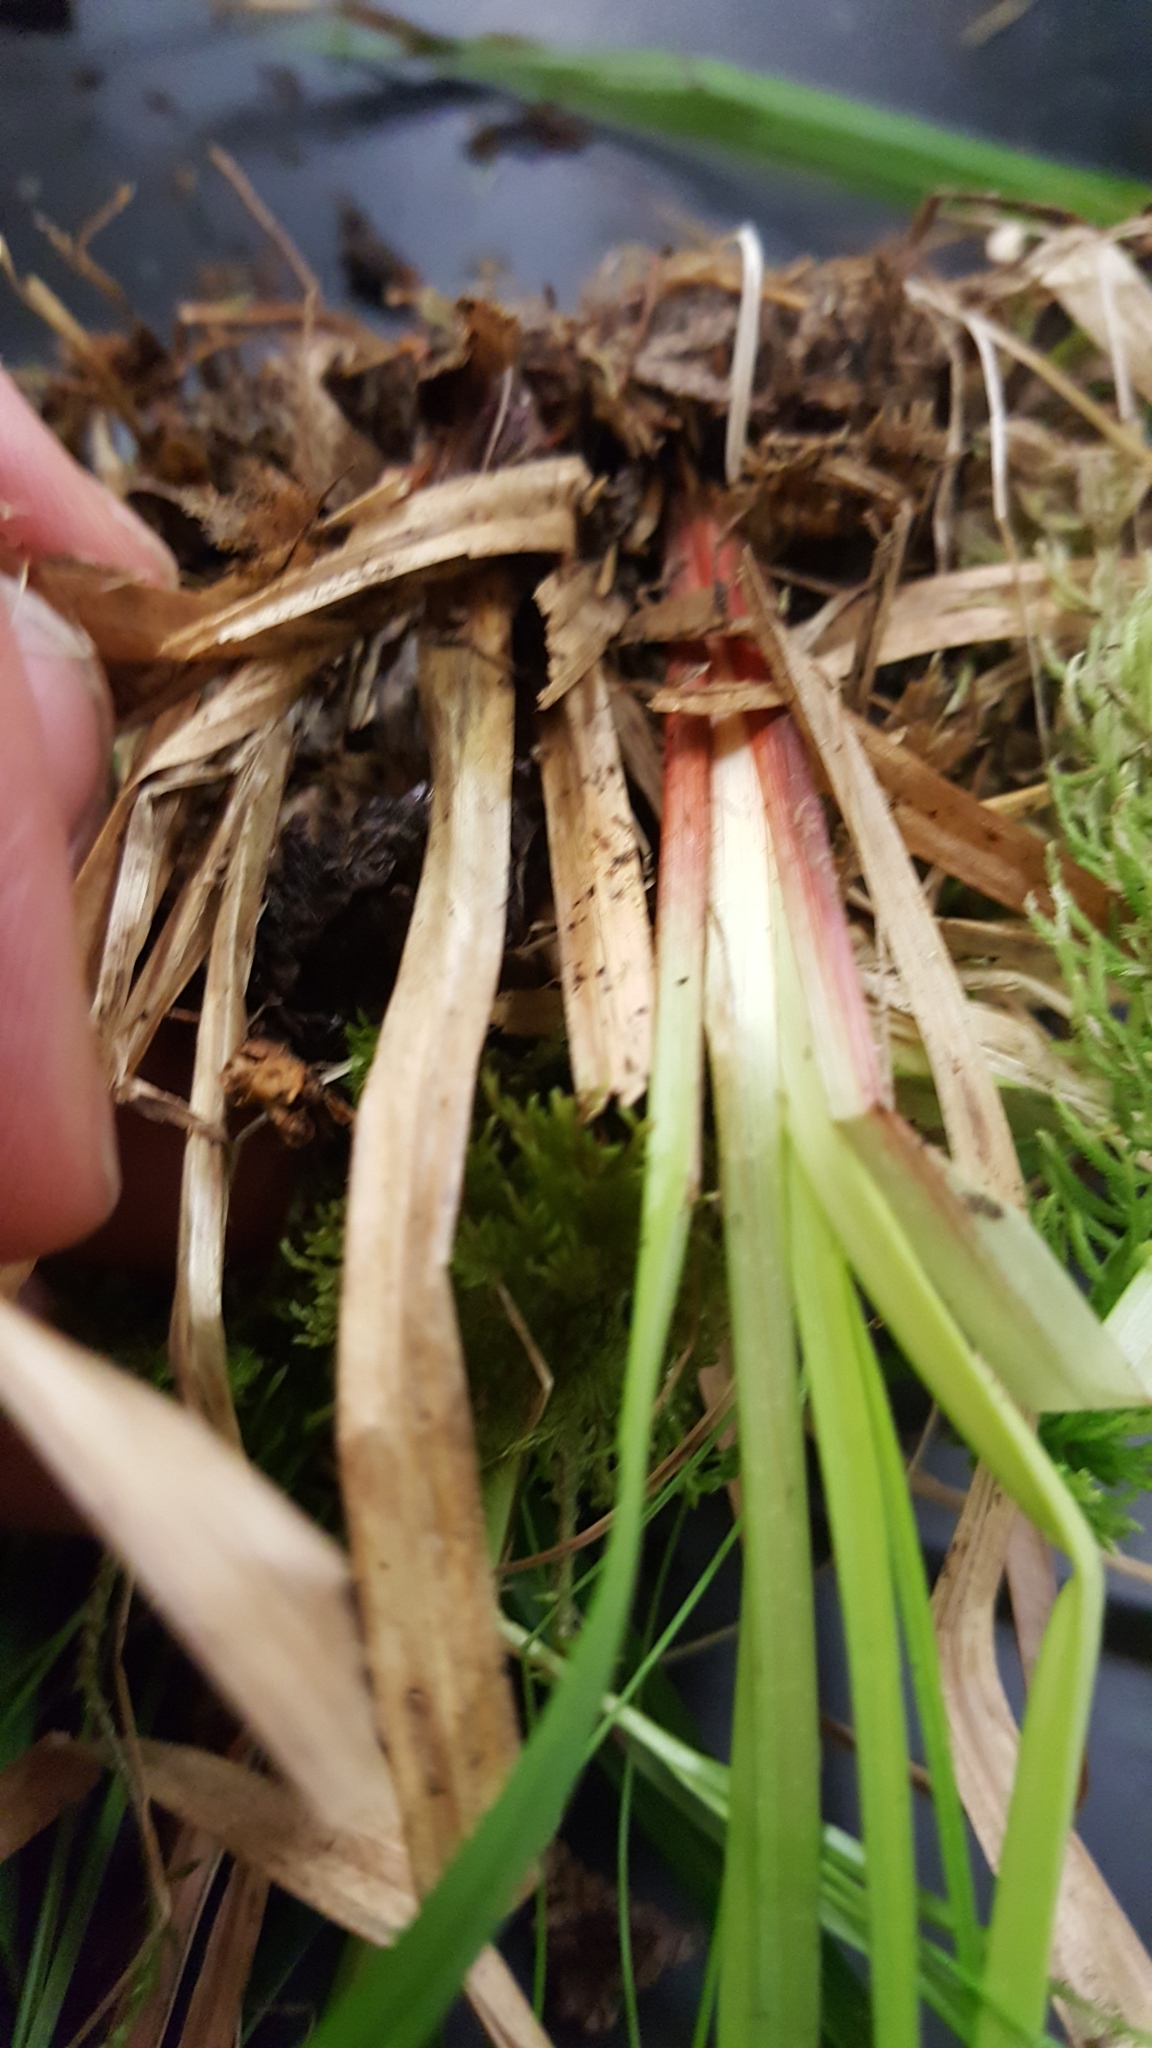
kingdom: Plantae
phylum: Tracheophyta
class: Liliopsida
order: Poales
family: Cyperaceae
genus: Carex
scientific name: Carex intumescens
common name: Greater bladder sedge
